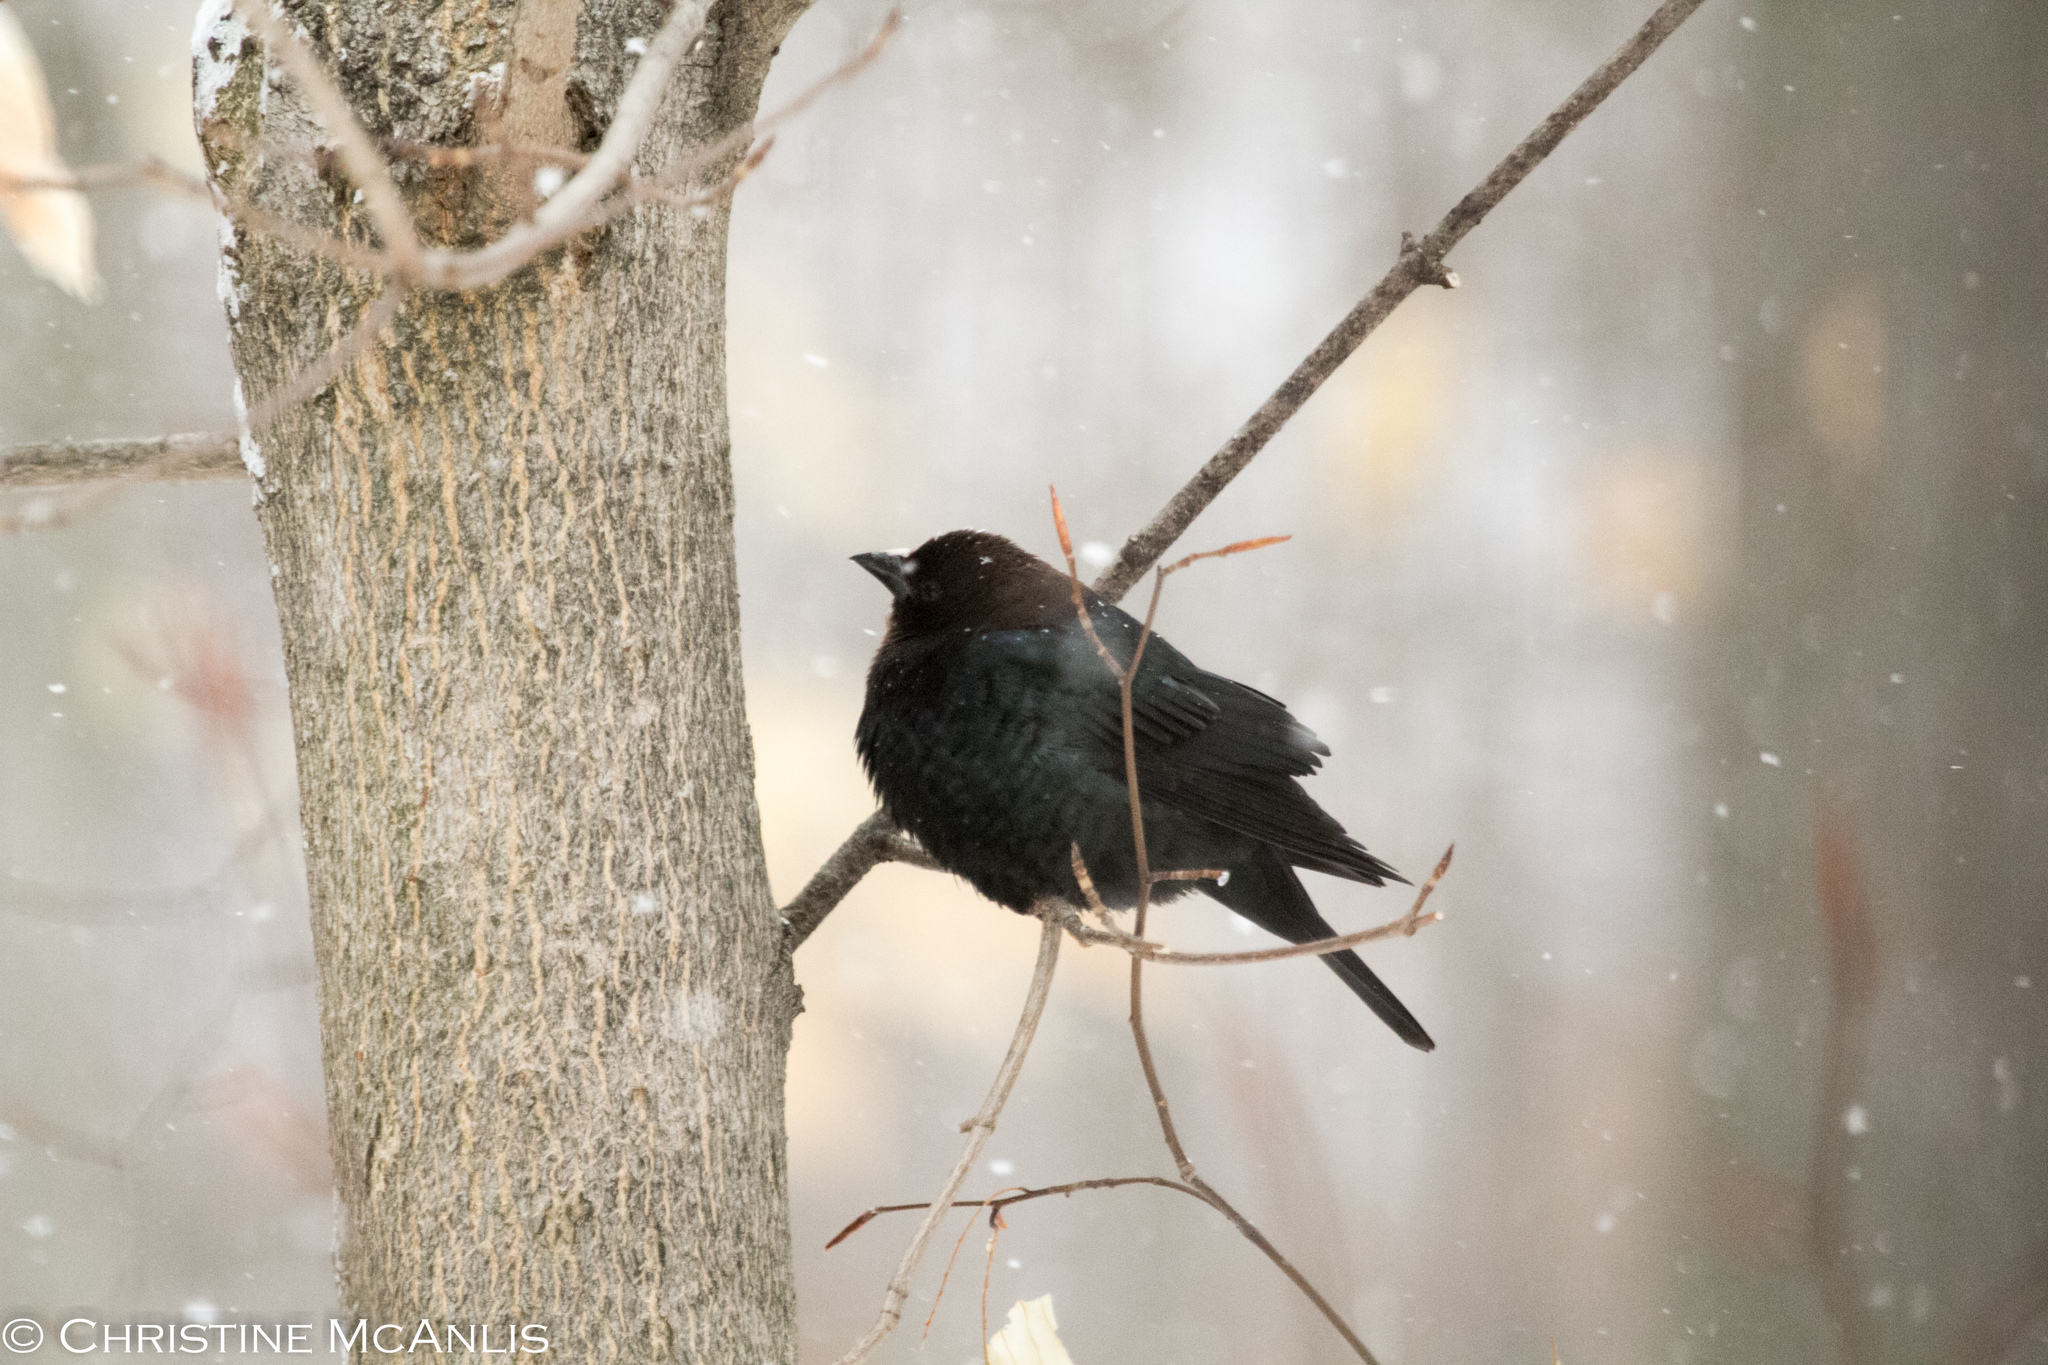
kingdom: Animalia
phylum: Chordata
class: Aves
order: Passeriformes
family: Icteridae
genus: Molothrus
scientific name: Molothrus ater
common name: Brown-headed cowbird
